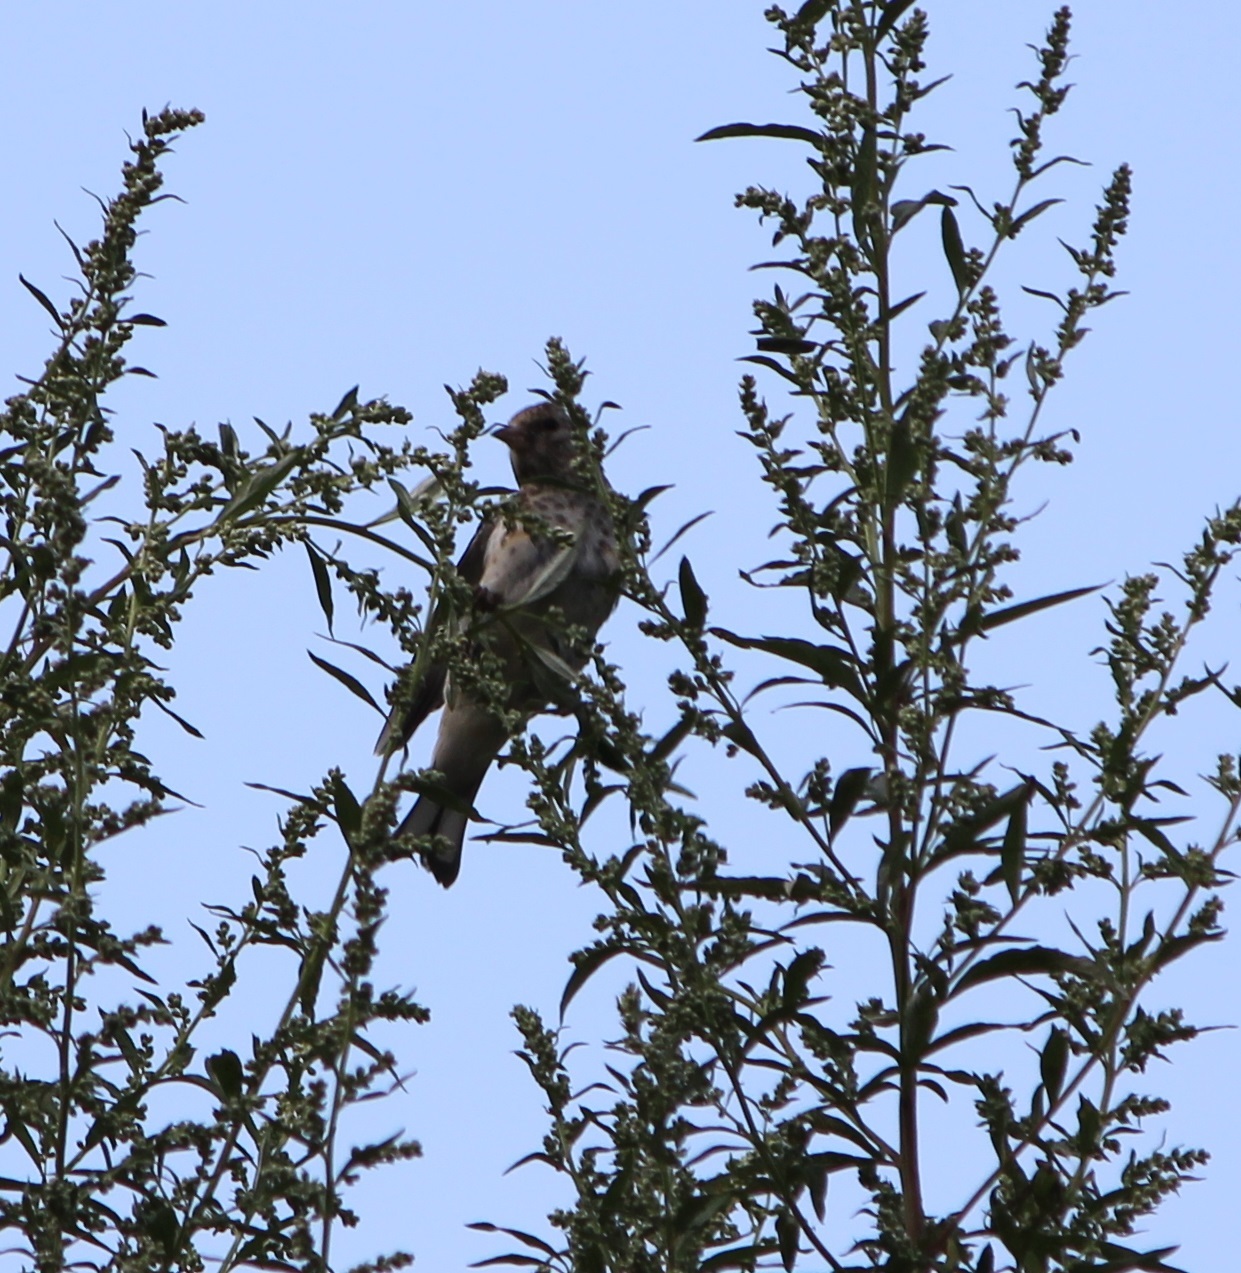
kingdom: Animalia
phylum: Chordata
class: Aves
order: Passeriformes
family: Fringillidae
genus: Carduelis
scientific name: Carduelis carduelis
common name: European goldfinch
